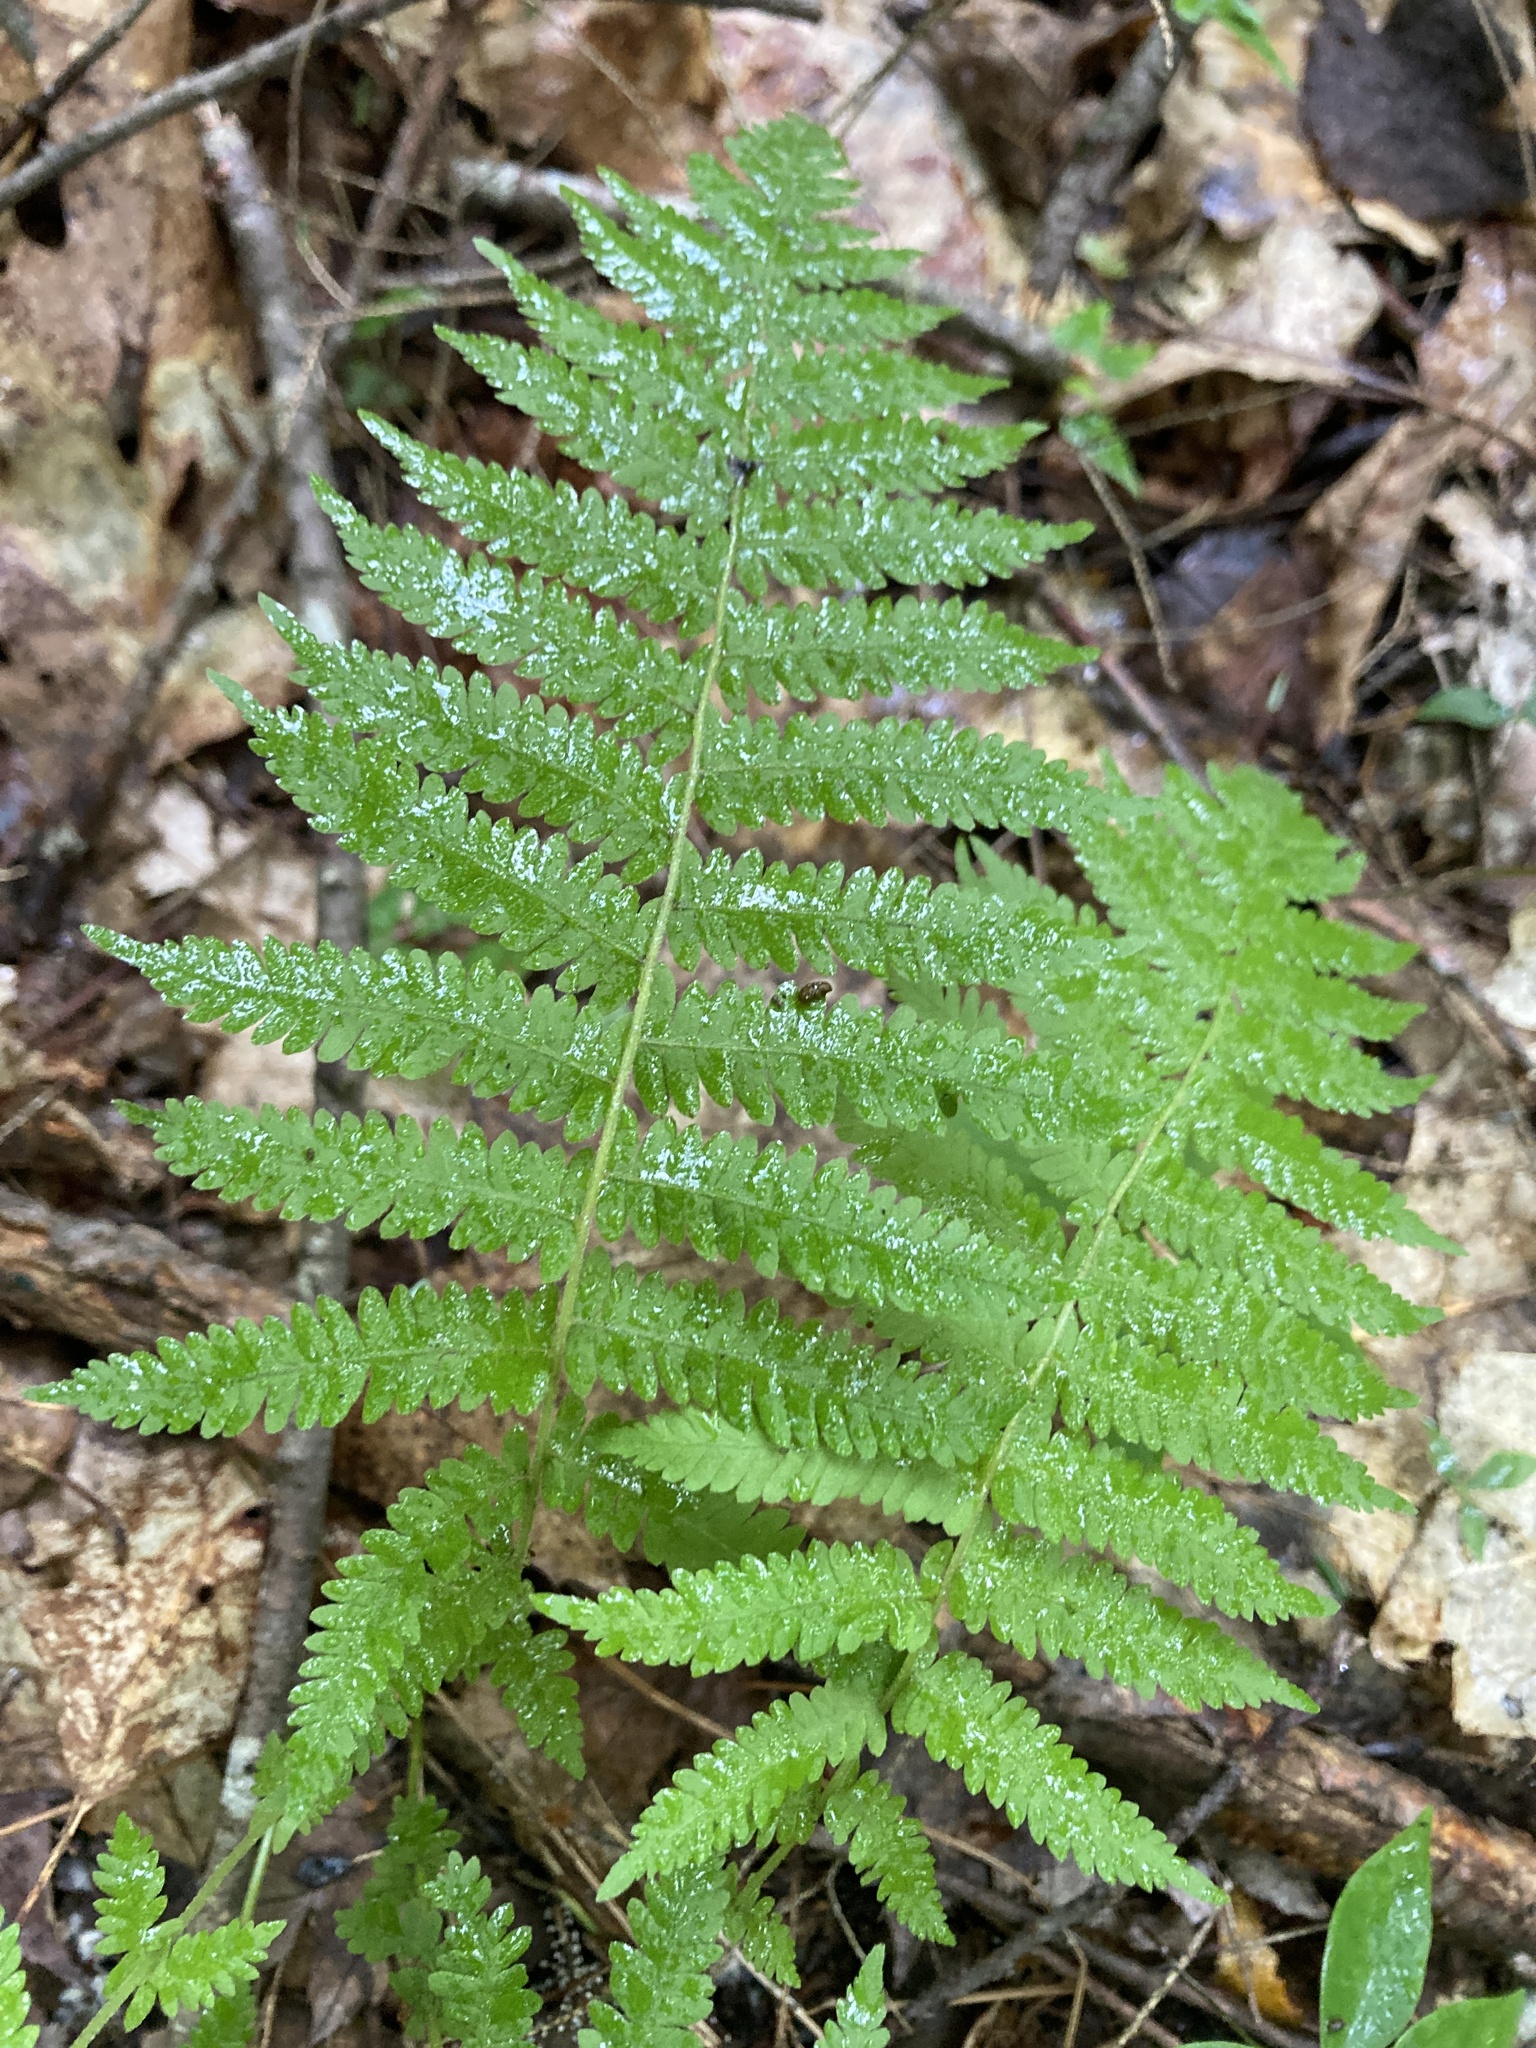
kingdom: Plantae
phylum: Tracheophyta
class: Polypodiopsida
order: Polypodiales
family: Thelypteridaceae
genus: Amauropelta
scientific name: Amauropelta noveboracensis
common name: New york fern
